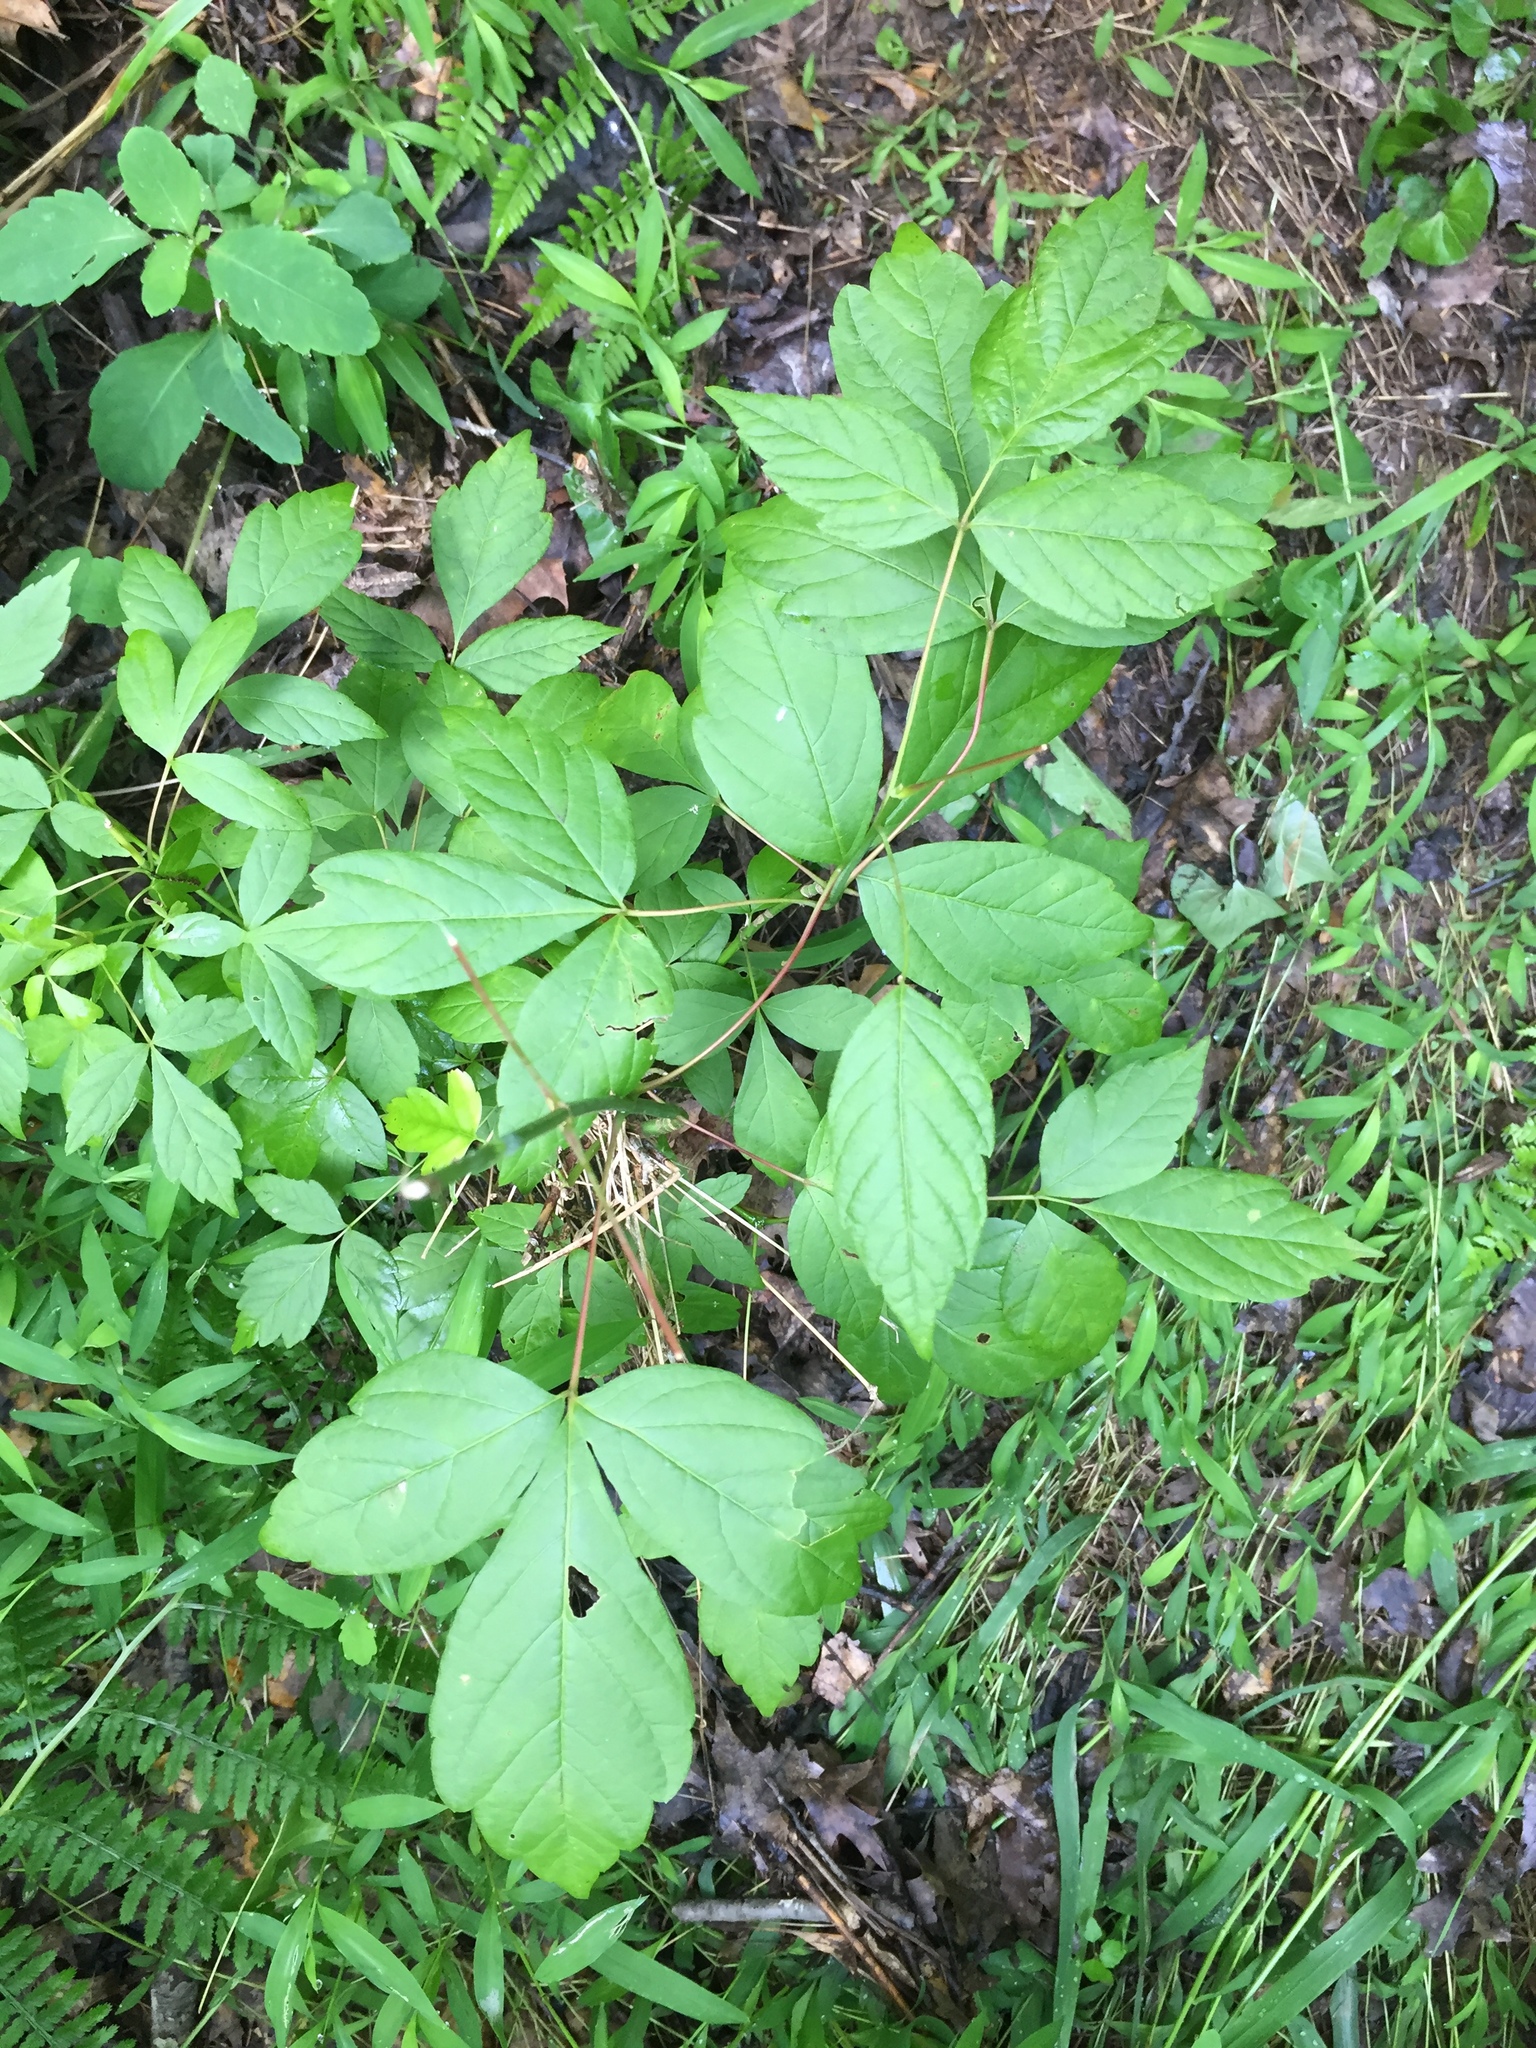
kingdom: Plantae
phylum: Tracheophyta
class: Magnoliopsida
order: Sapindales
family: Sapindaceae
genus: Acer
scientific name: Acer negundo
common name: Ashleaf maple
